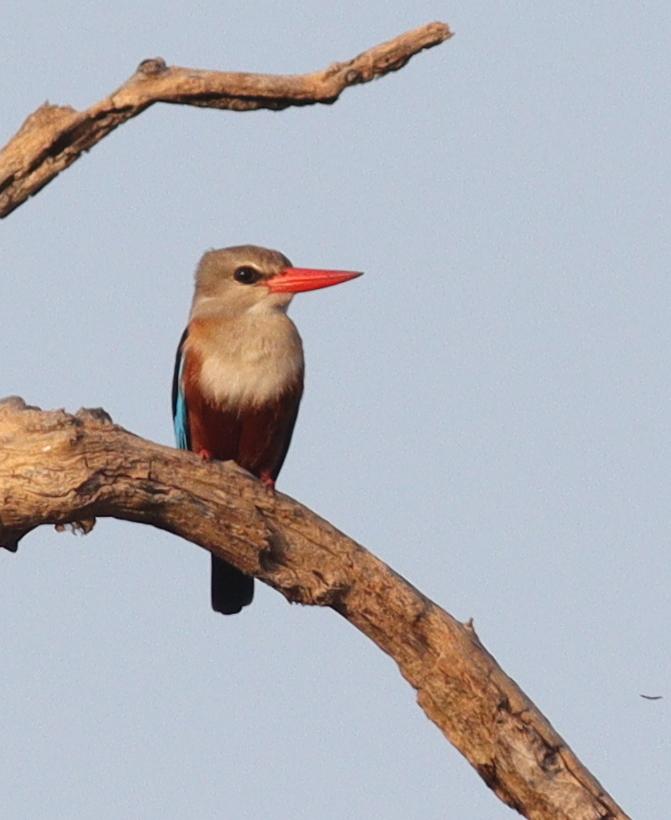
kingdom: Animalia
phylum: Chordata
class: Aves
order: Coraciiformes
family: Alcedinidae
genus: Halcyon
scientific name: Halcyon leucocephala
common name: Grey-headed kingfisher
